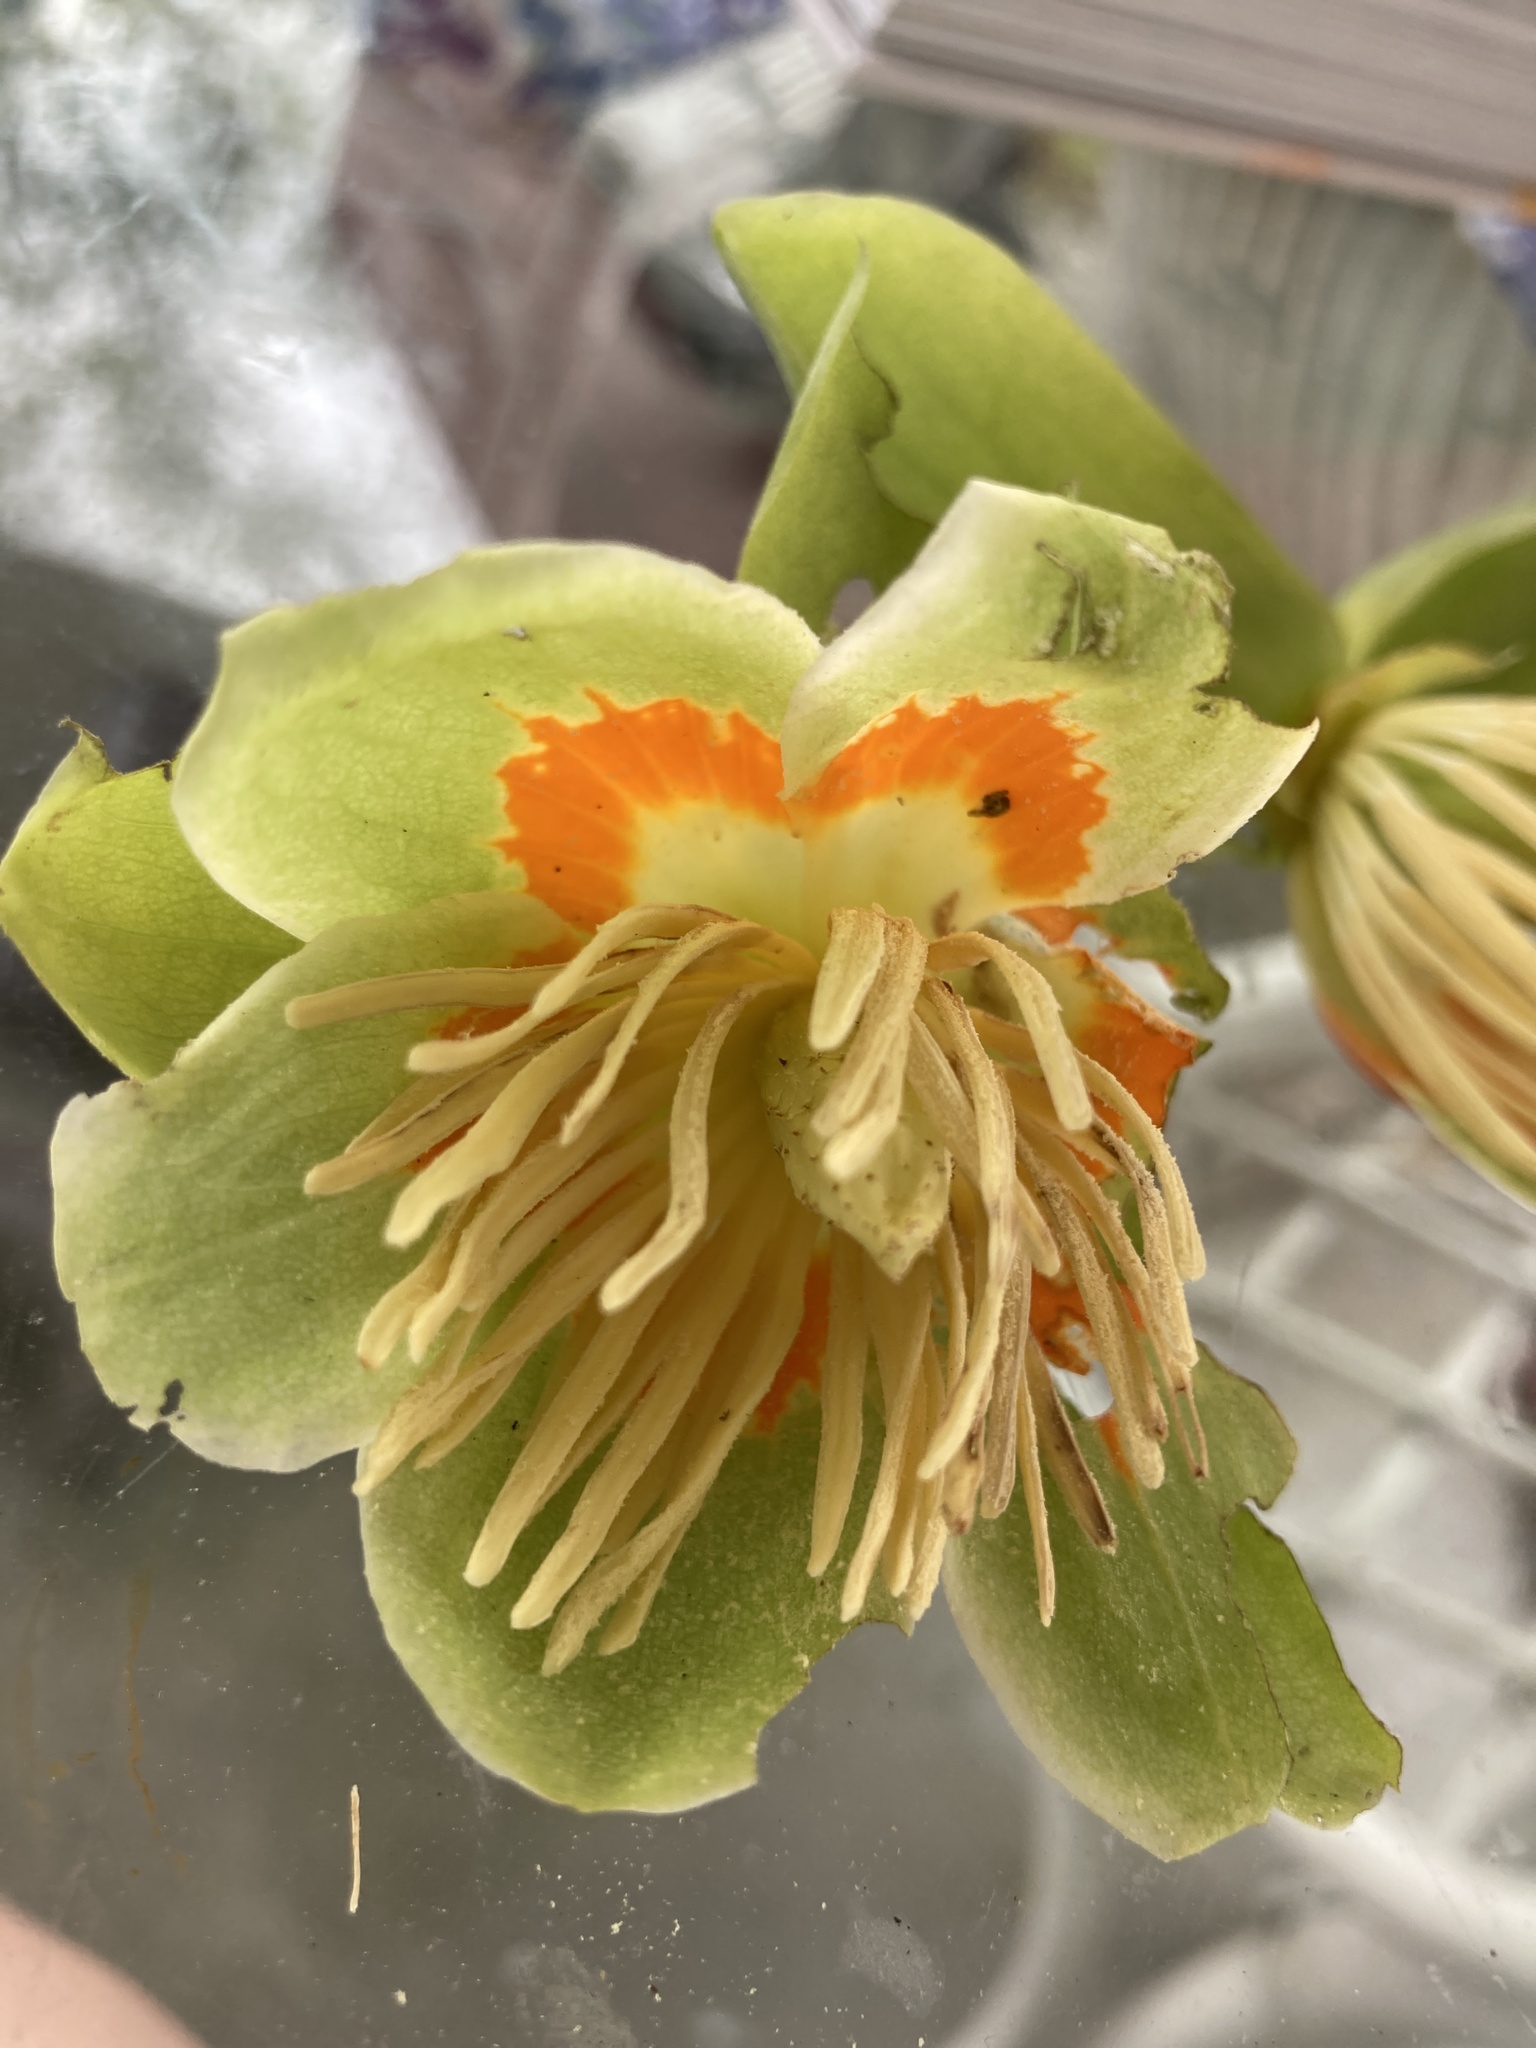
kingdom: Plantae
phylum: Tracheophyta
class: Magnoliopsida
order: Magnoliales
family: Magnoliaceae
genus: Liriodendron
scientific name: Liriodendron tulipifera
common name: Tulip tree
